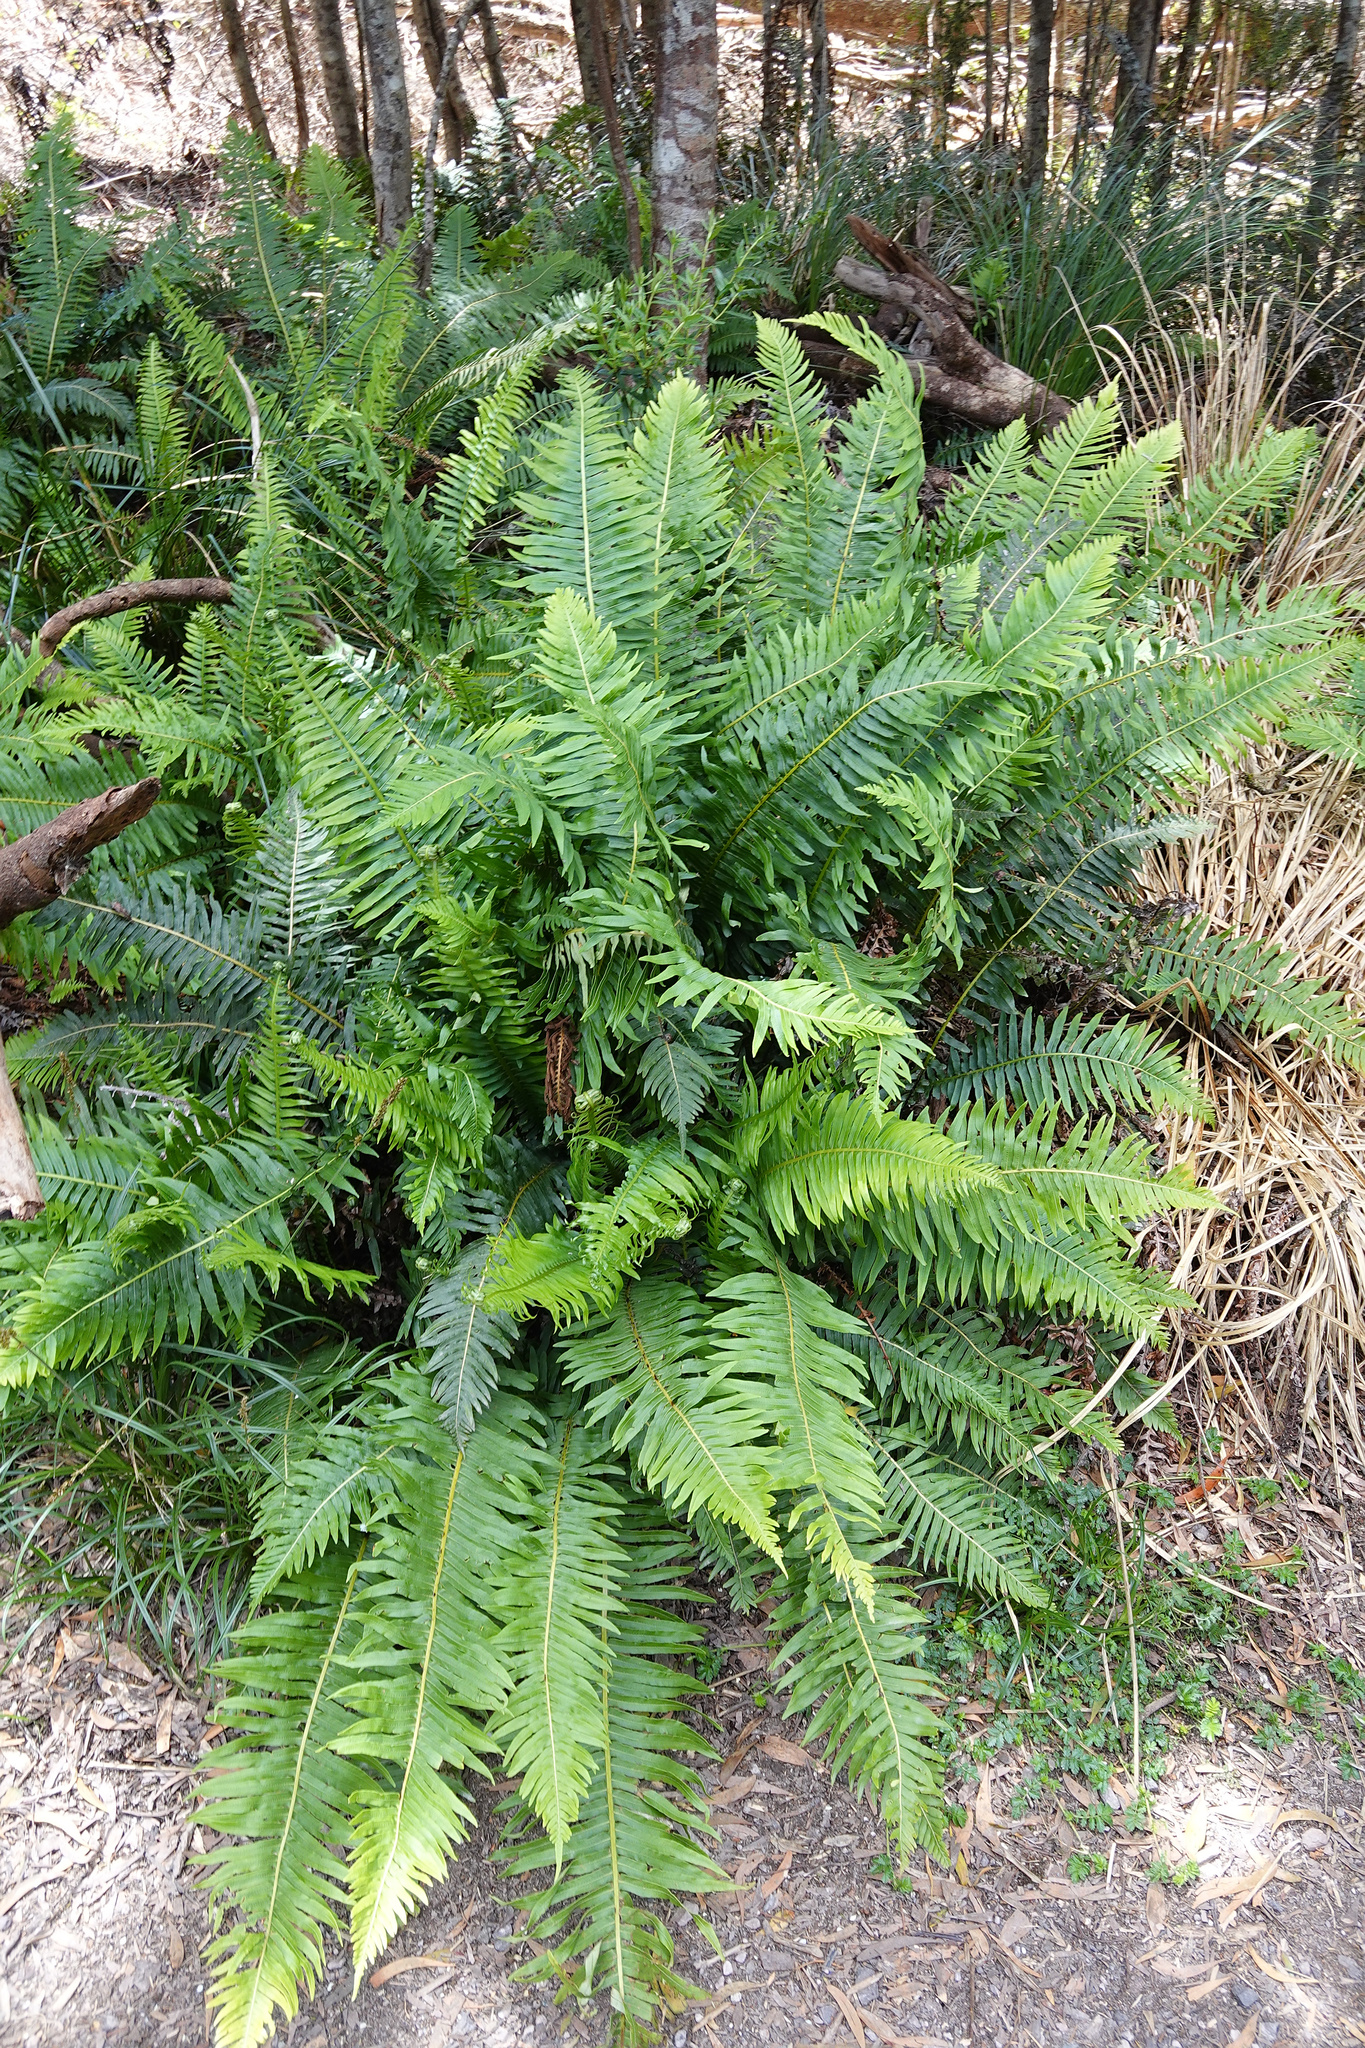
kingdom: Plantae
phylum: Tracheophyta
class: Polypodiopsida
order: Polypodiales
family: Blechnaceae
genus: Lomaria
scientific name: Lomaria nuda
